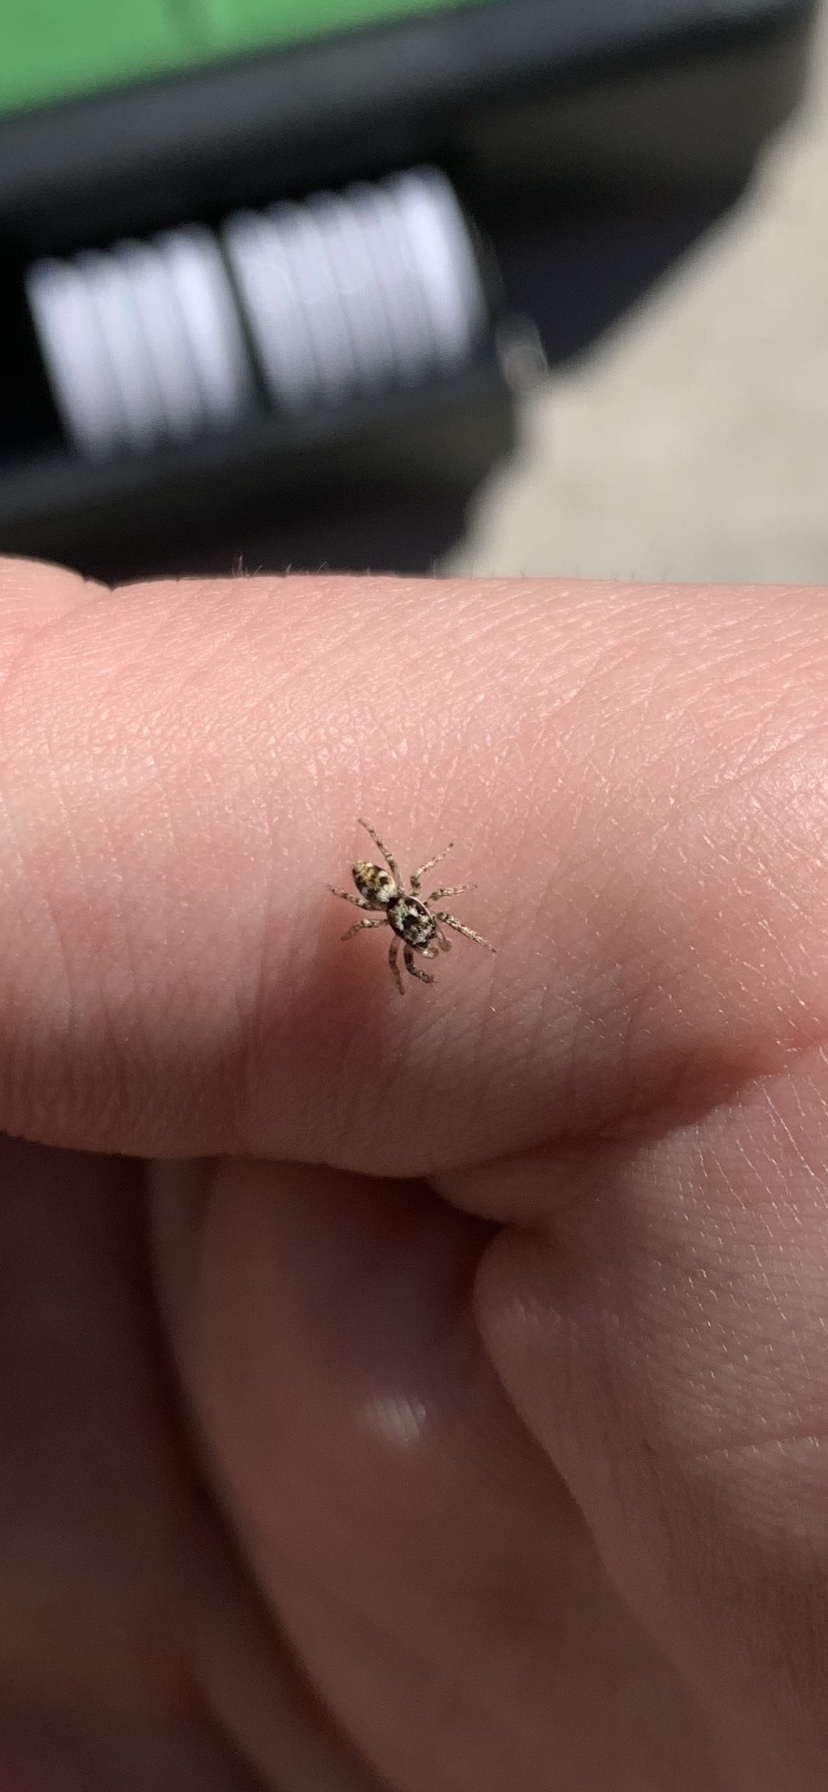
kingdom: Animalia
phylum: Arthropoda
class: Arachnida
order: Araneae
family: Salticidae
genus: Salticus
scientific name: Salticus scenicus
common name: Zebra jumper
